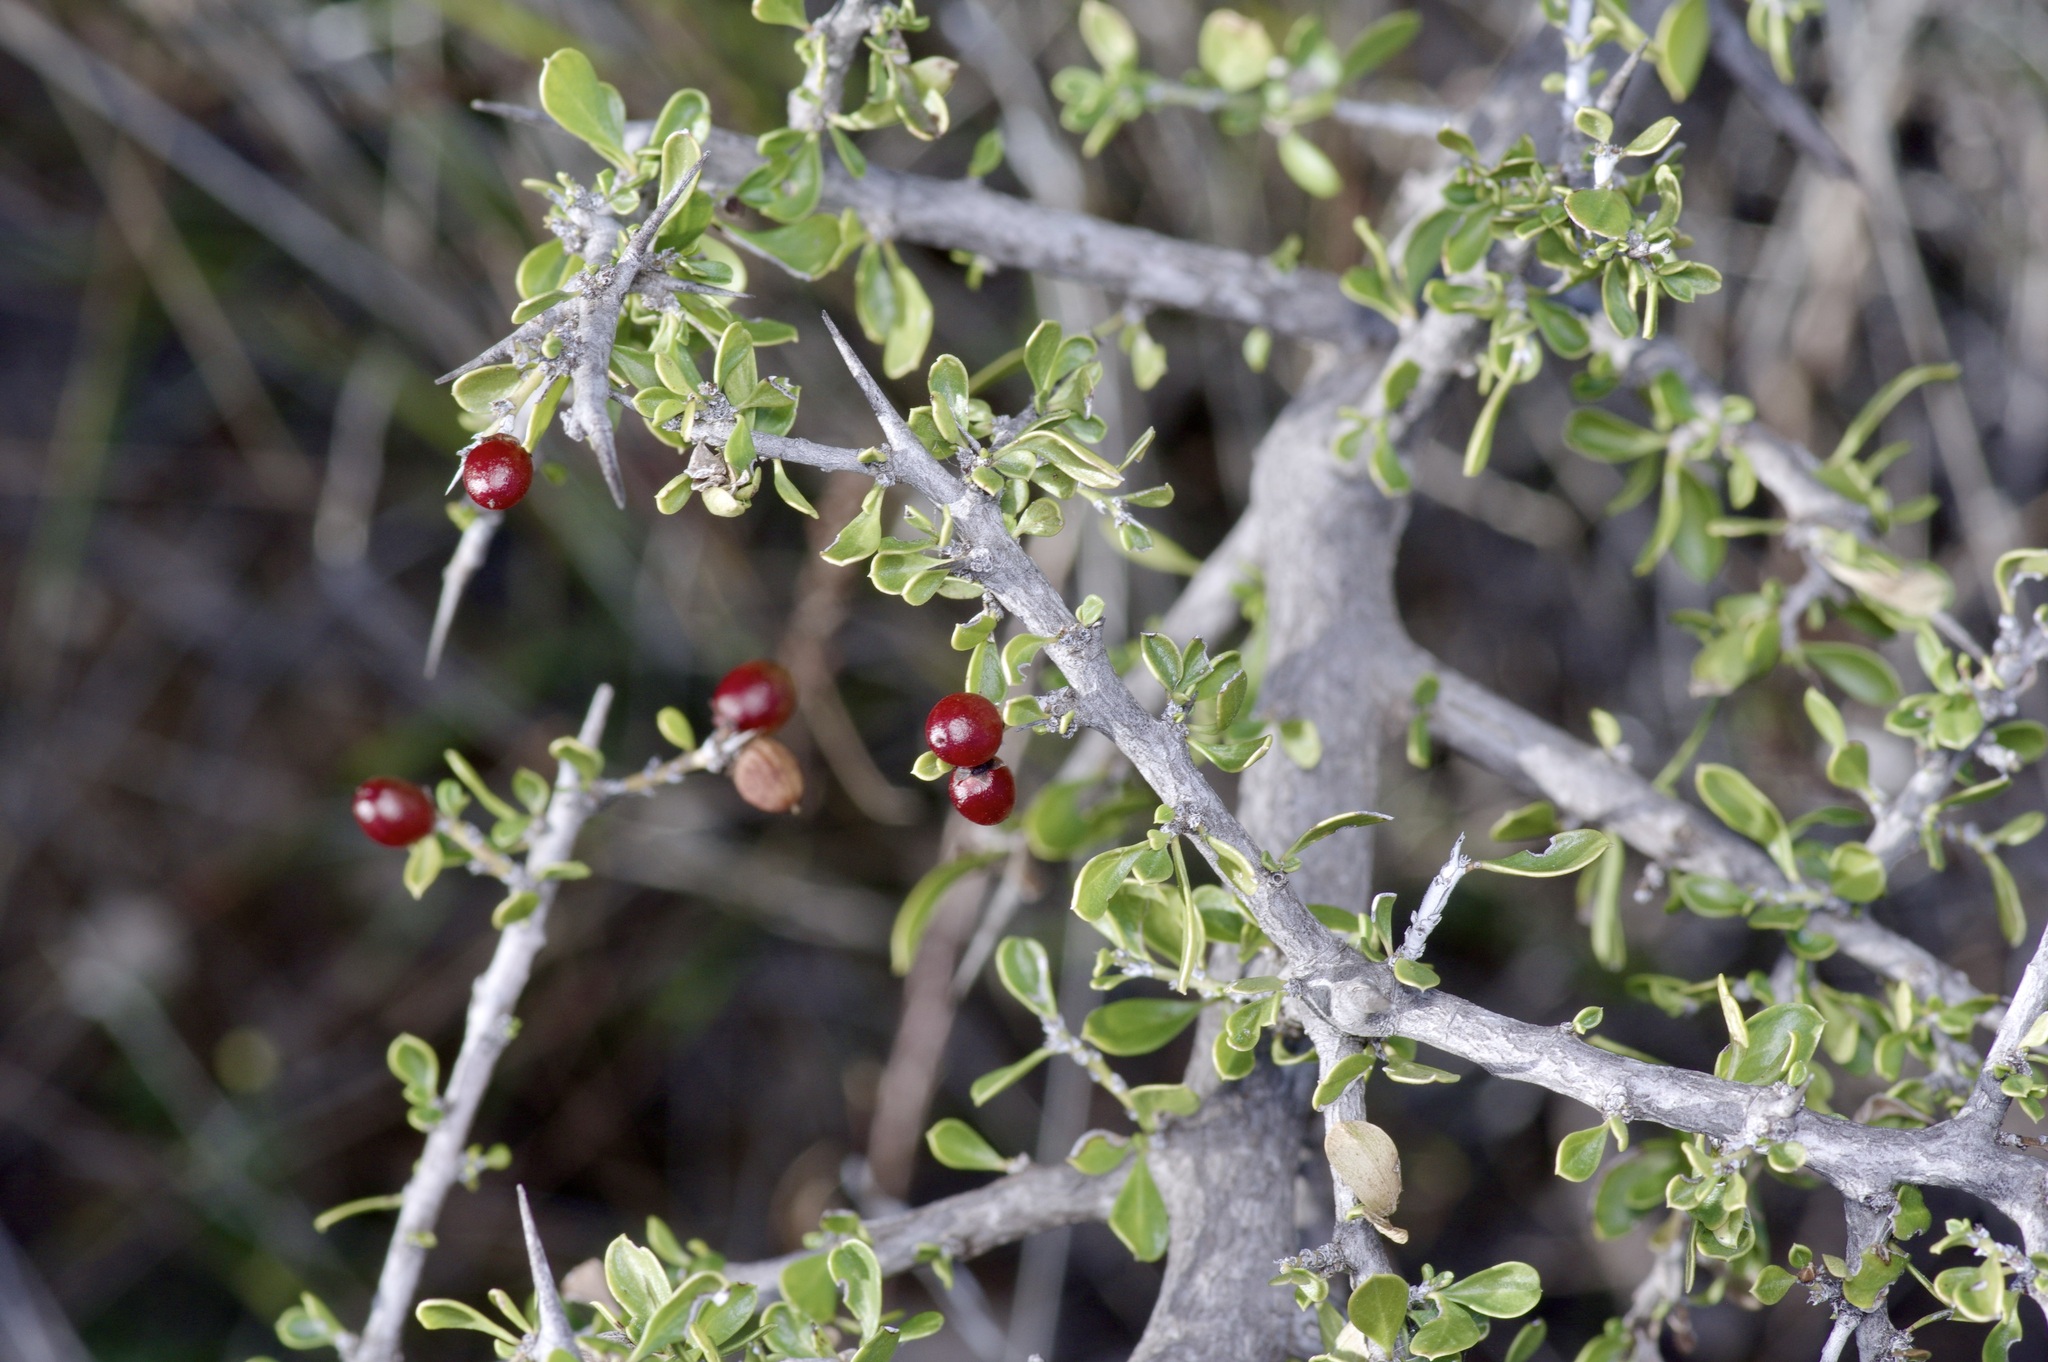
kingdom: Plantae
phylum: Tracheophyta
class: Magnoliopsida
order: Rosales
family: Rhamnaceae
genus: Condalia
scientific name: Condalia viridis
